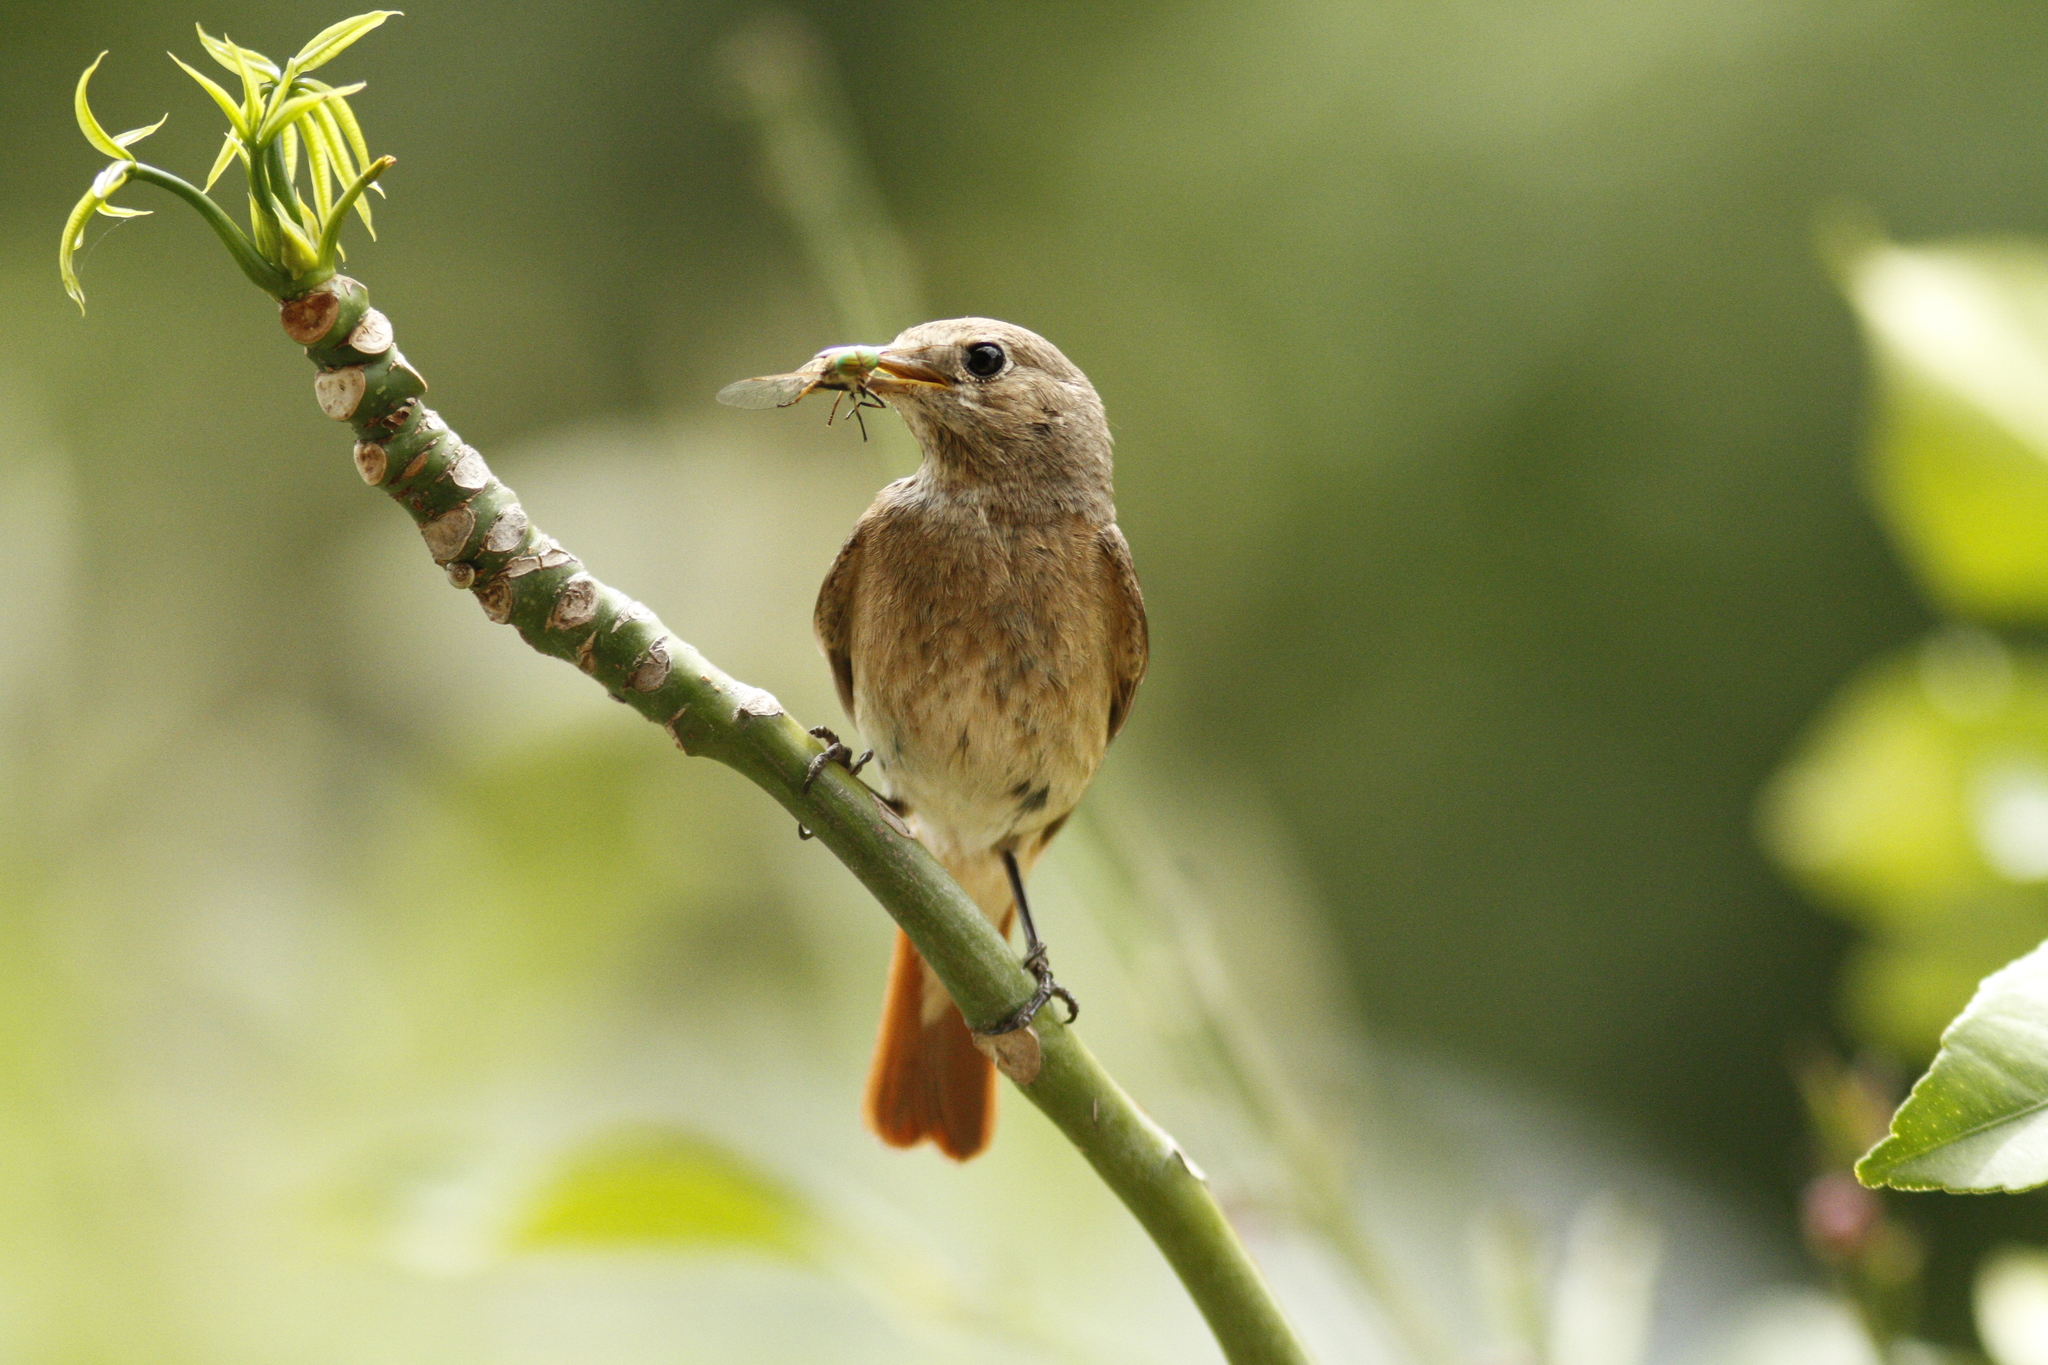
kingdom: Animalia
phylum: Chordata
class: Aves
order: Passeriformes
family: Muscicapidae
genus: Phoenicurus
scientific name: Phoenicurus phoenicurus
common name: Common redstart
